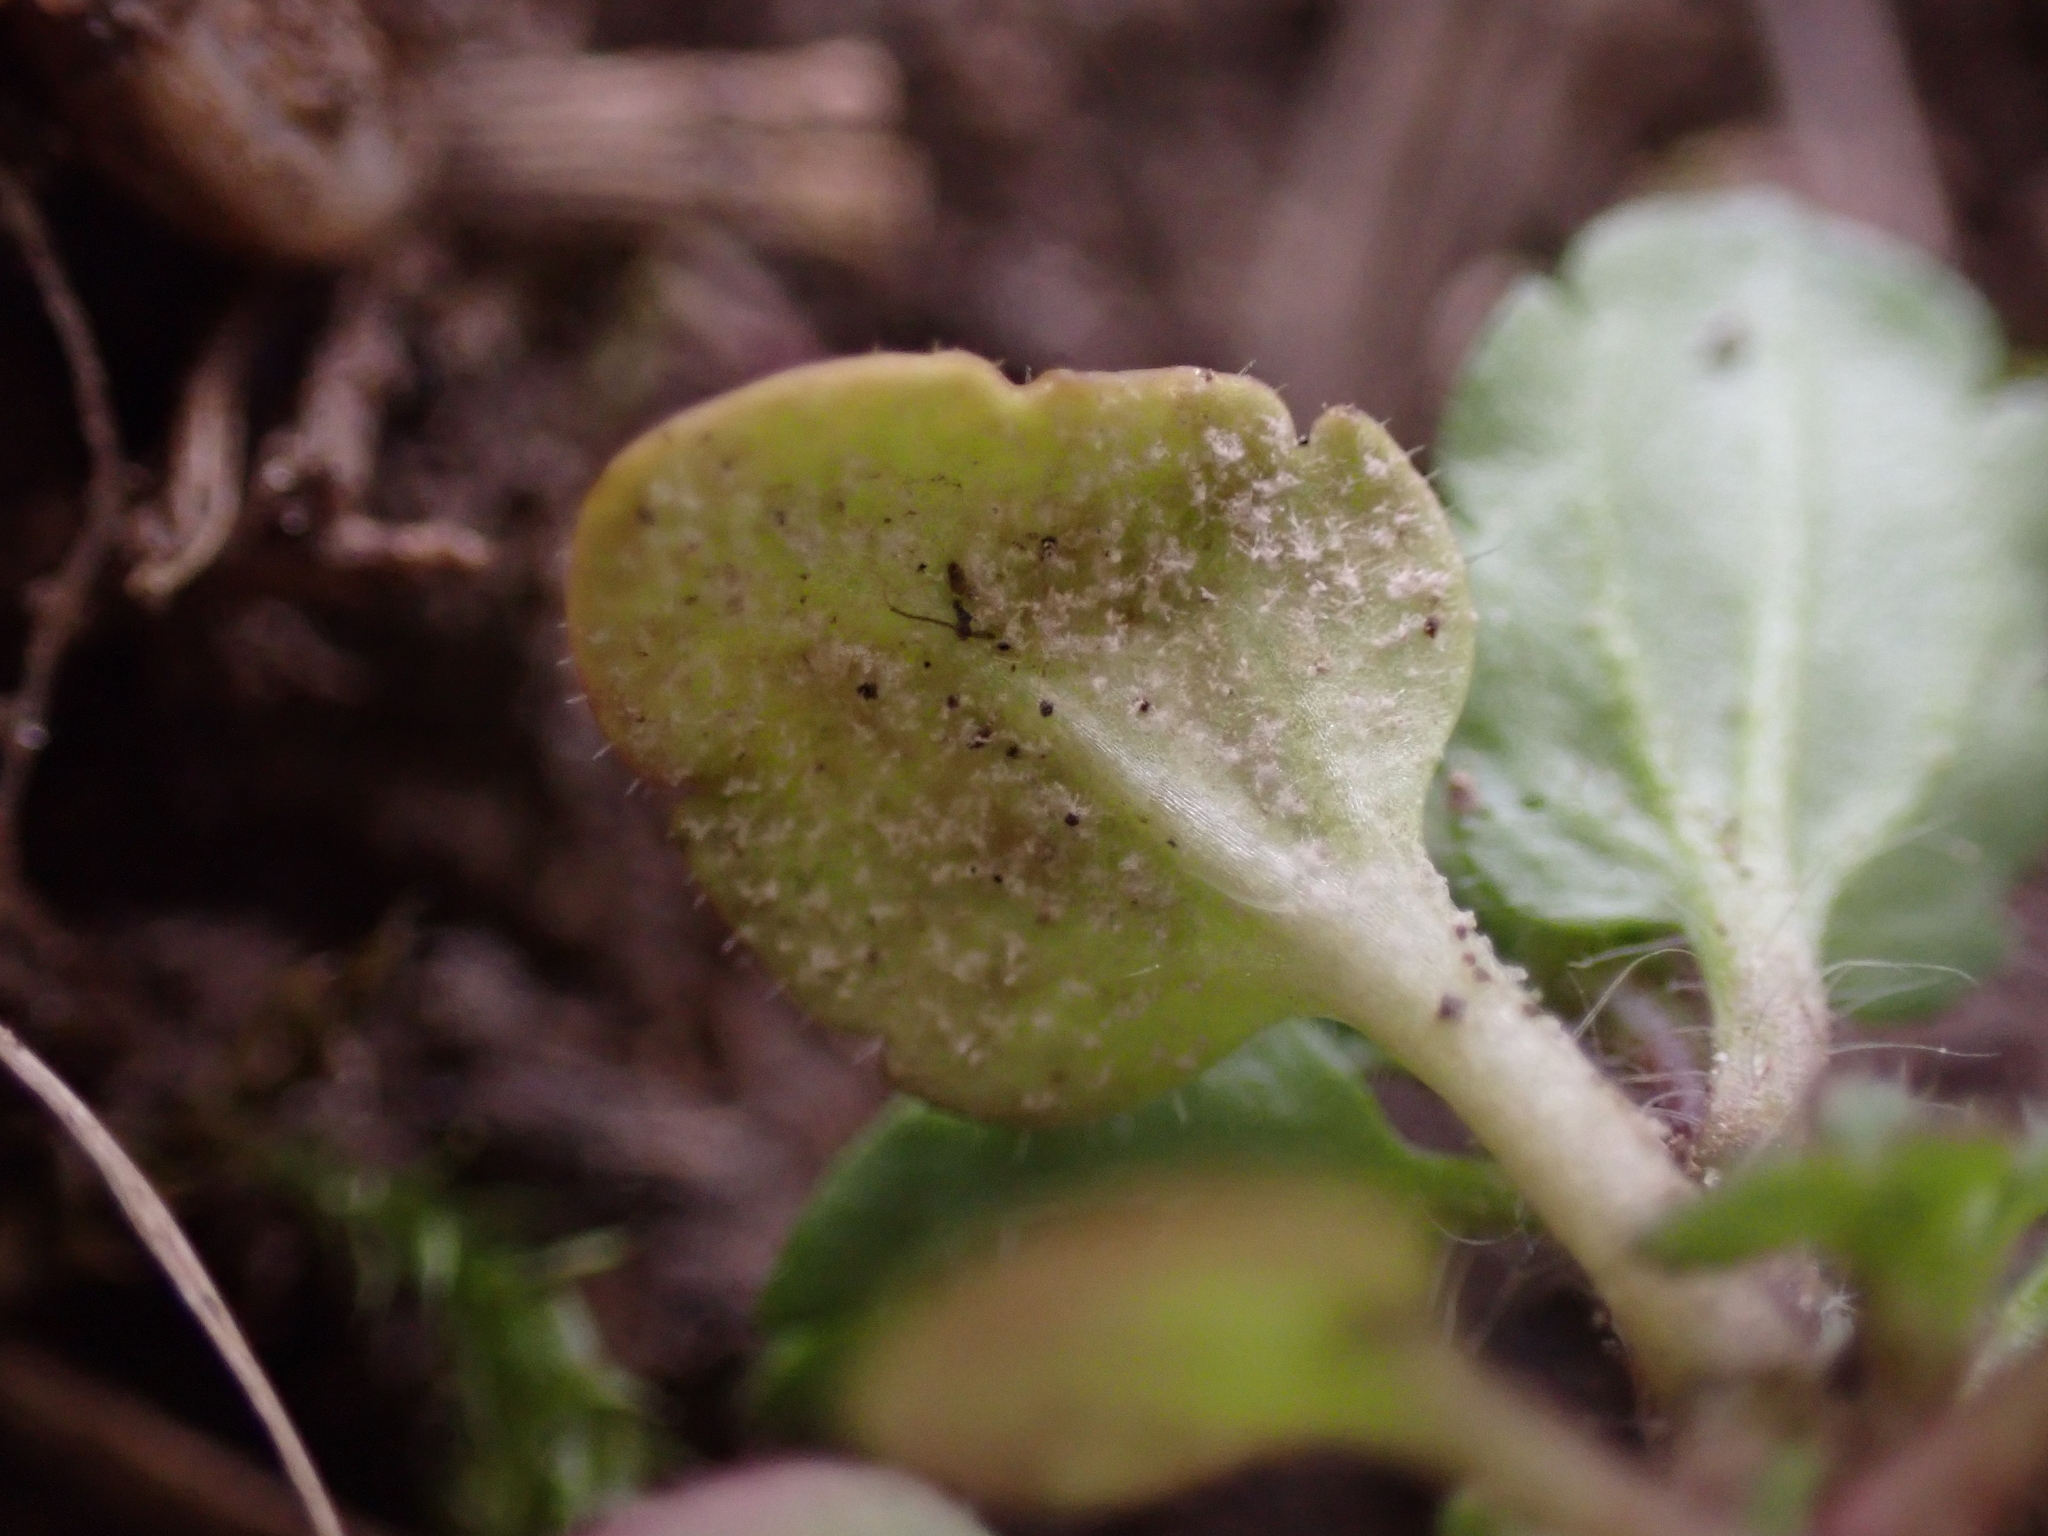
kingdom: Chromista
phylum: Oomycota
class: Peronosporea
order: Peronosporales
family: Peronosporaceae
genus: Peronospora
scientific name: Peronospora agrestis
